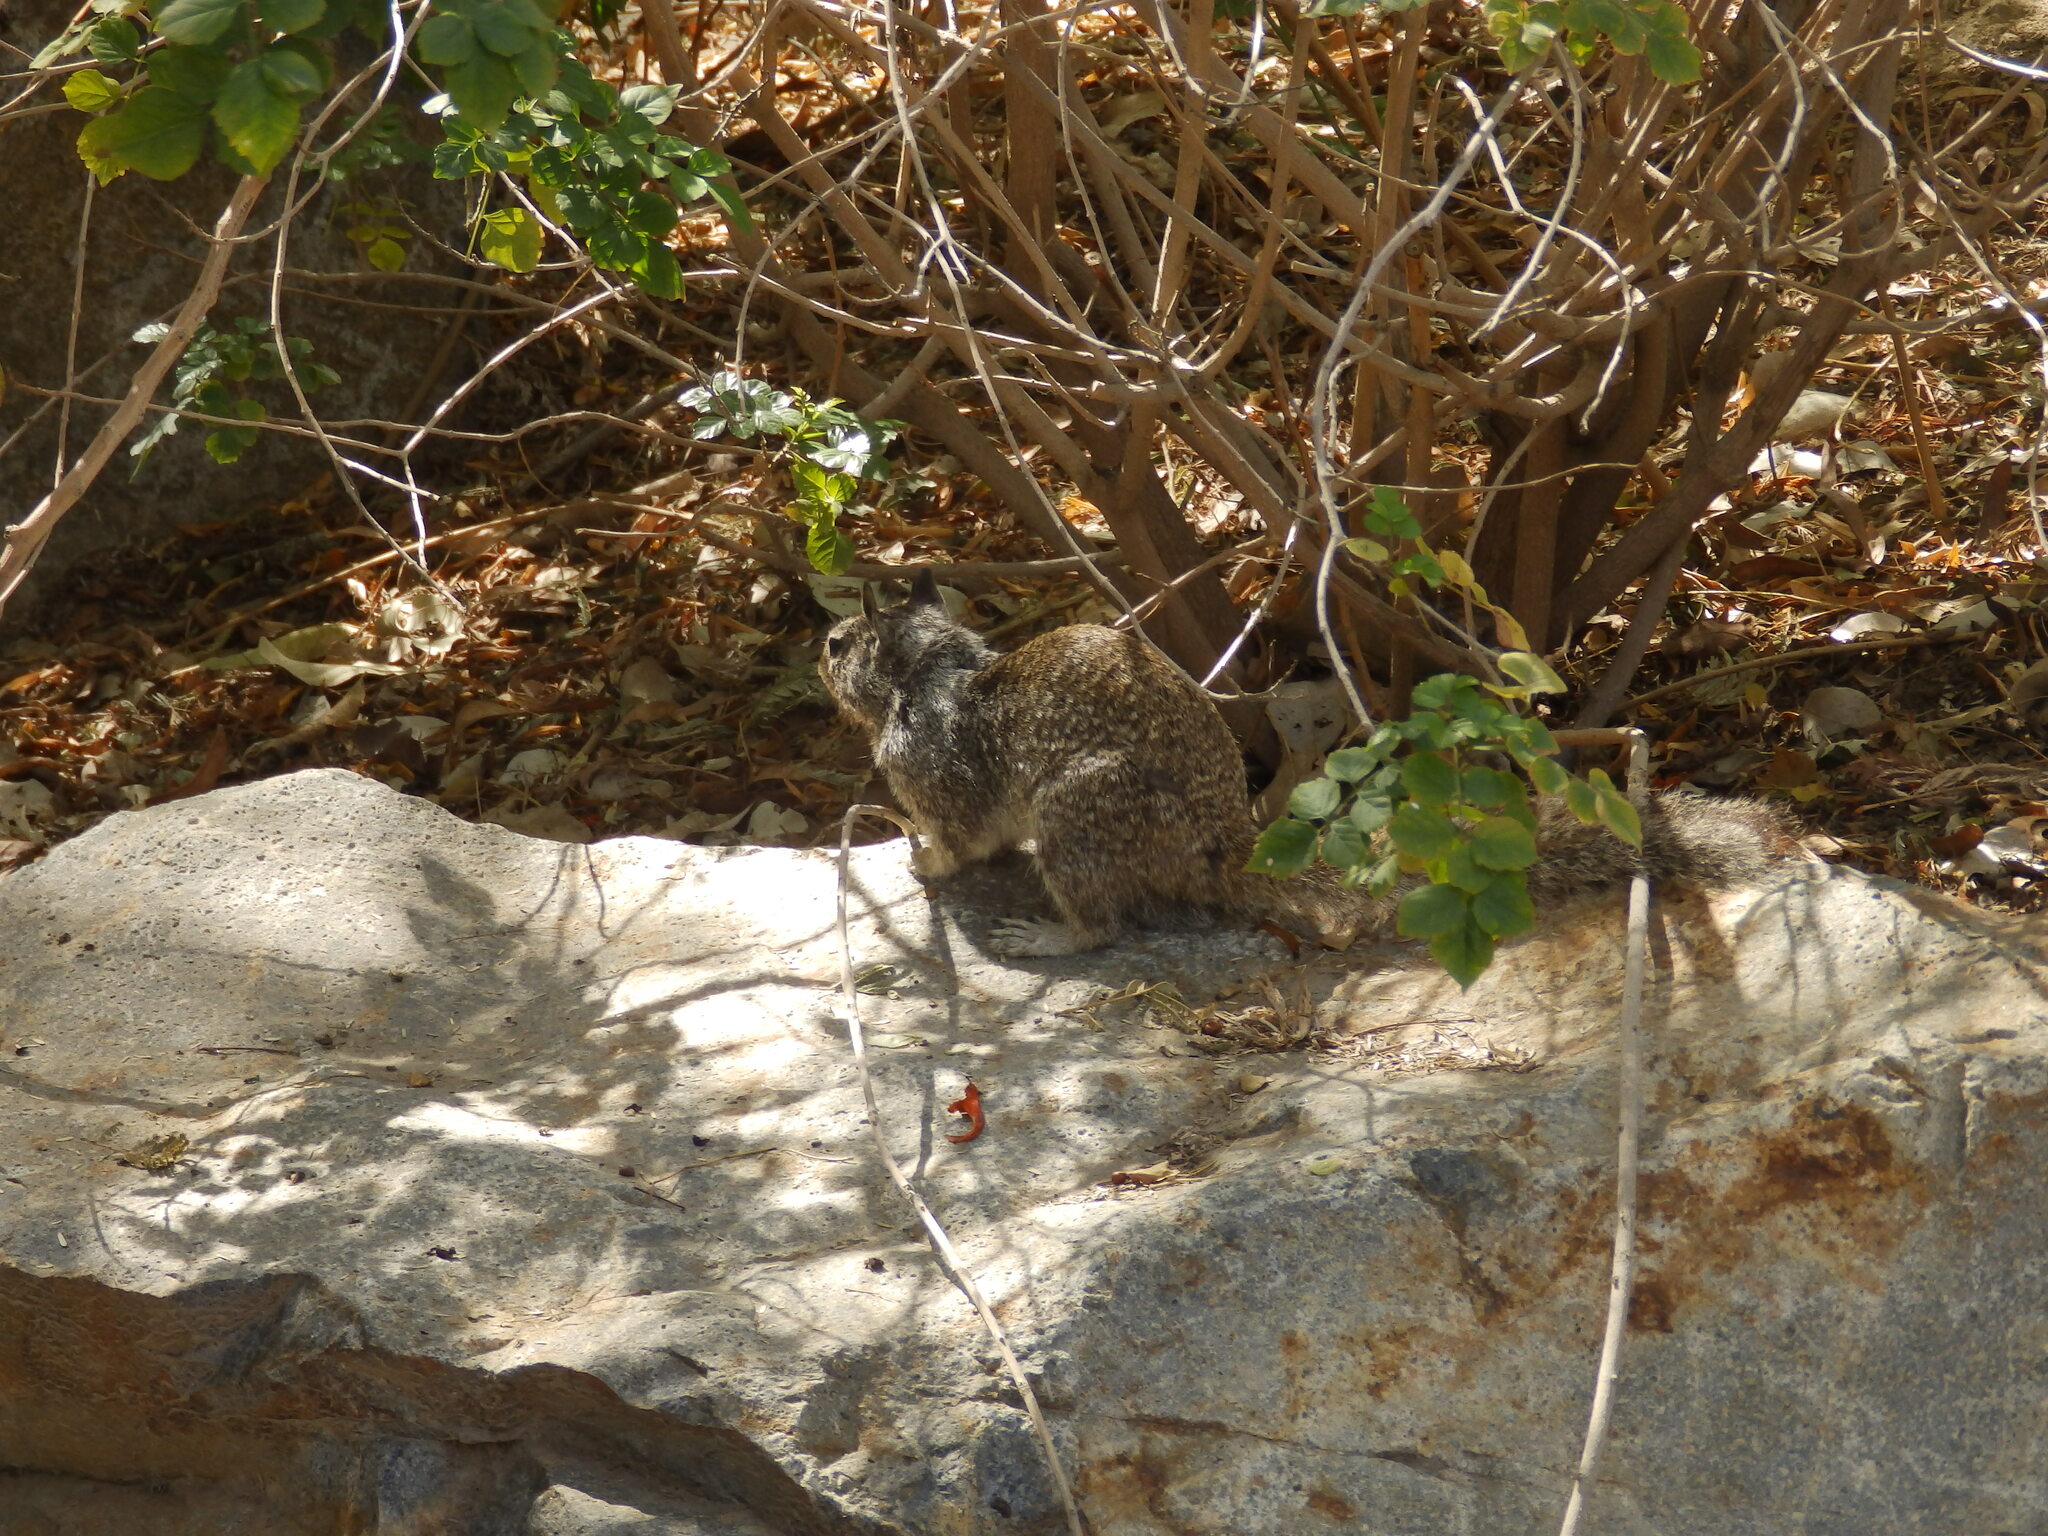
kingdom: Animalia
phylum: Chordata
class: Mammalia
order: Rodentia
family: Sciuridae
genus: Otospermophilus
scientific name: Otospermophilus beecheyi
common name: California ground squirrel
